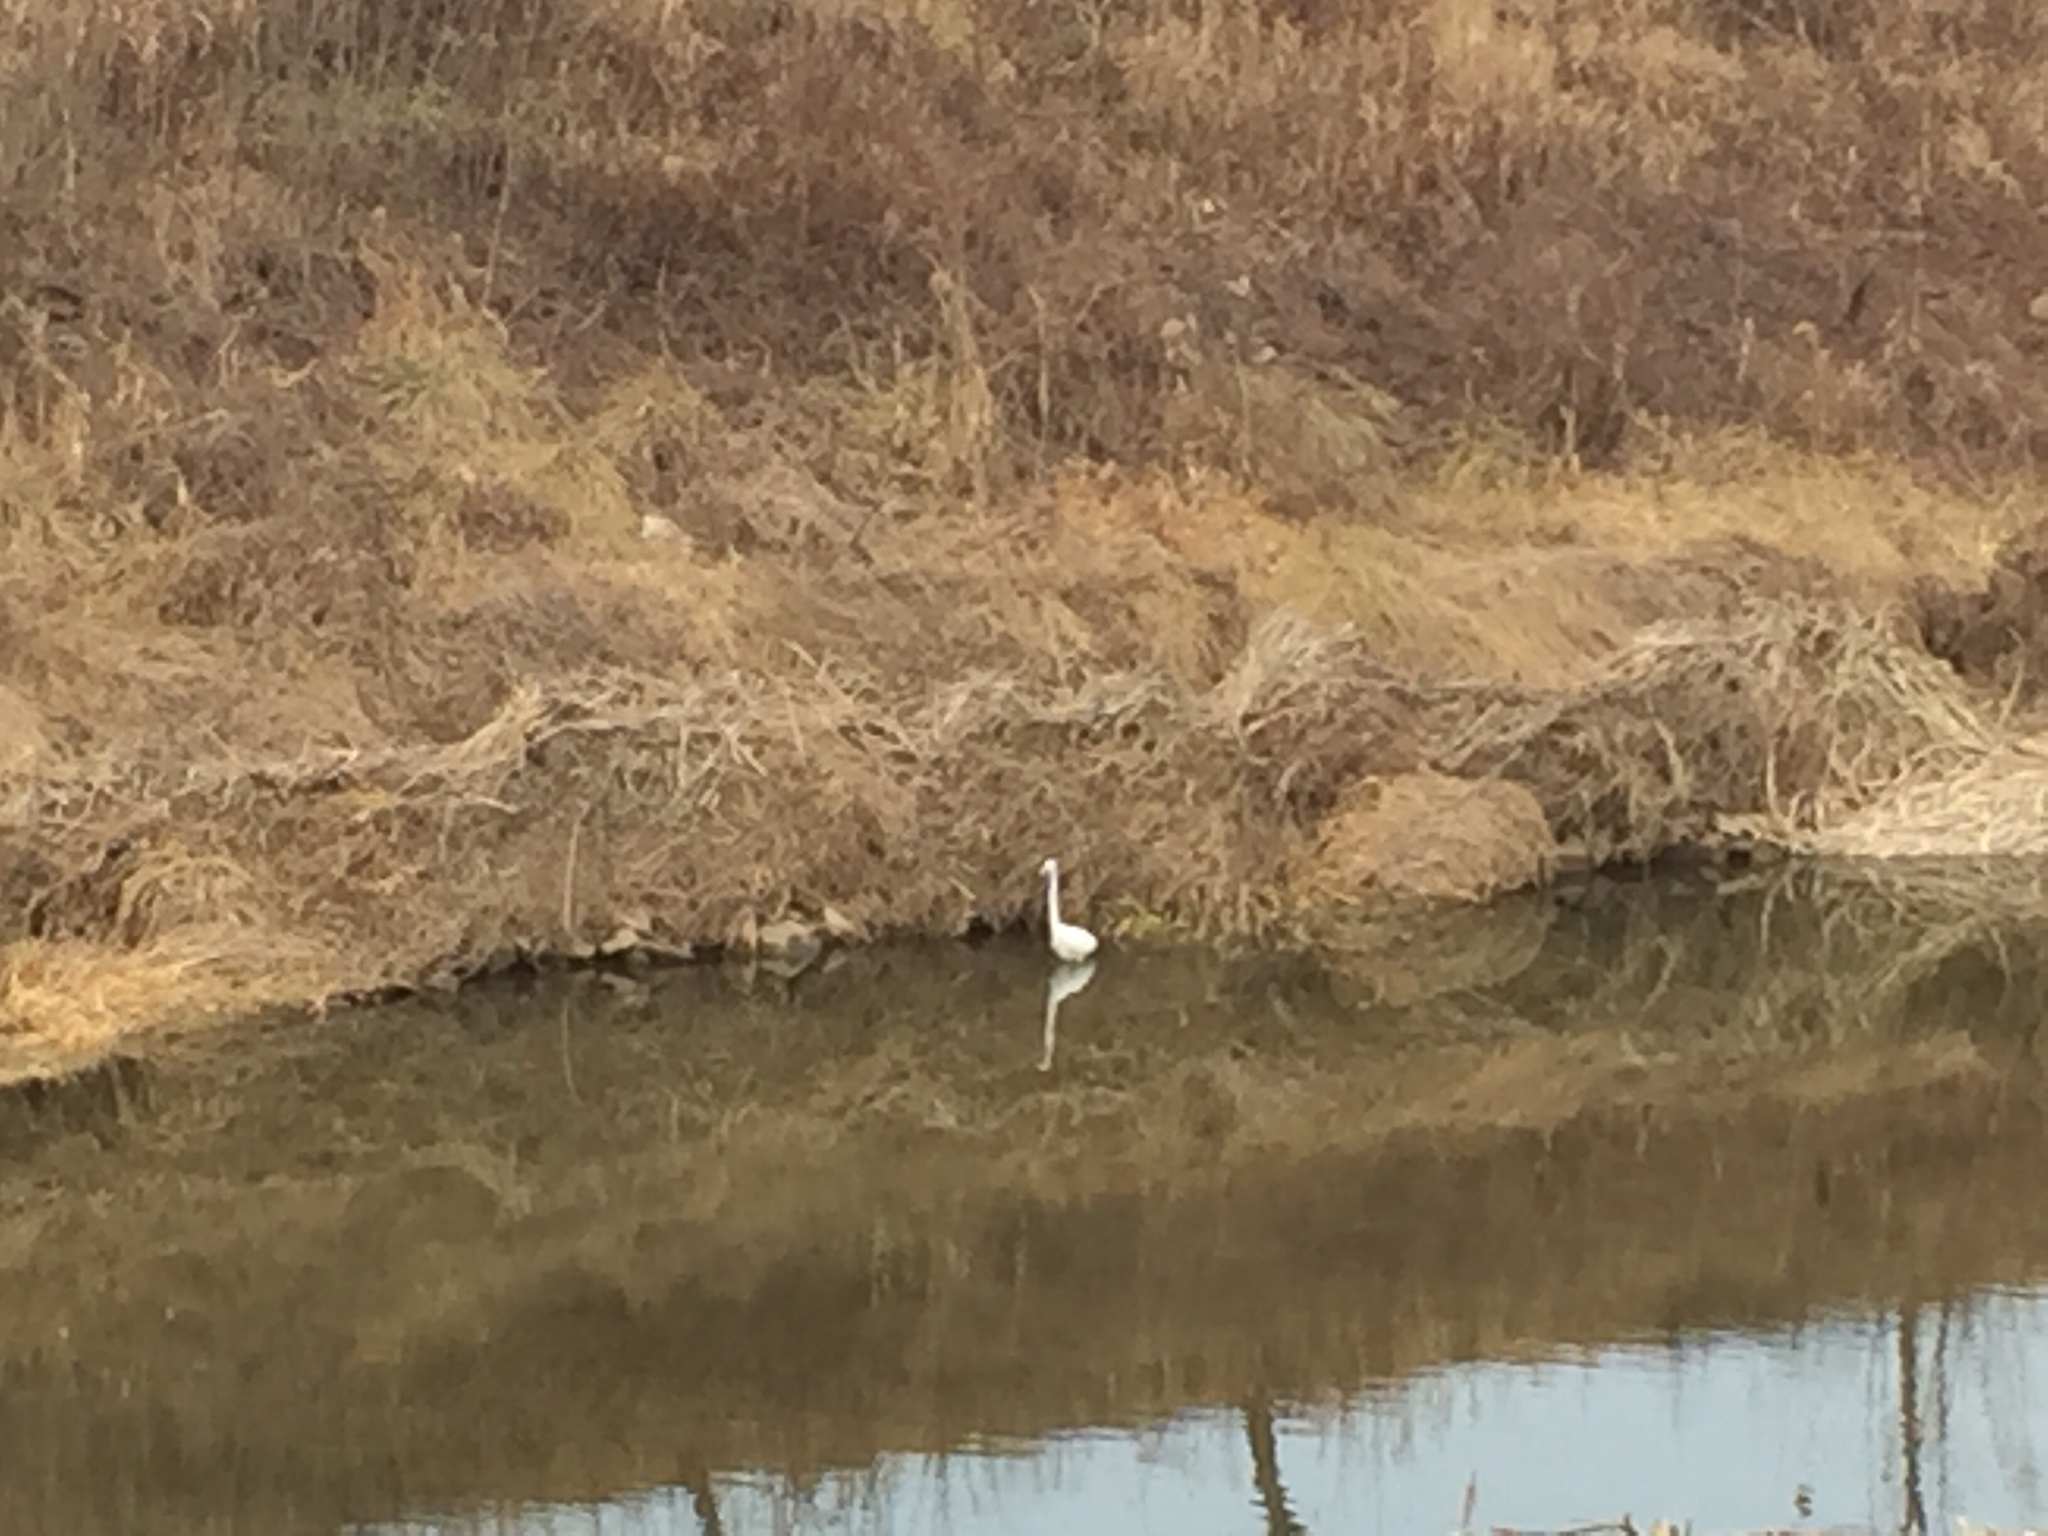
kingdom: Animalia
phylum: Chordata
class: Aves
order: Pelecaniformes
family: Ardeidae
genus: Ardea
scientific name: Ardea alba
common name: Great egret
